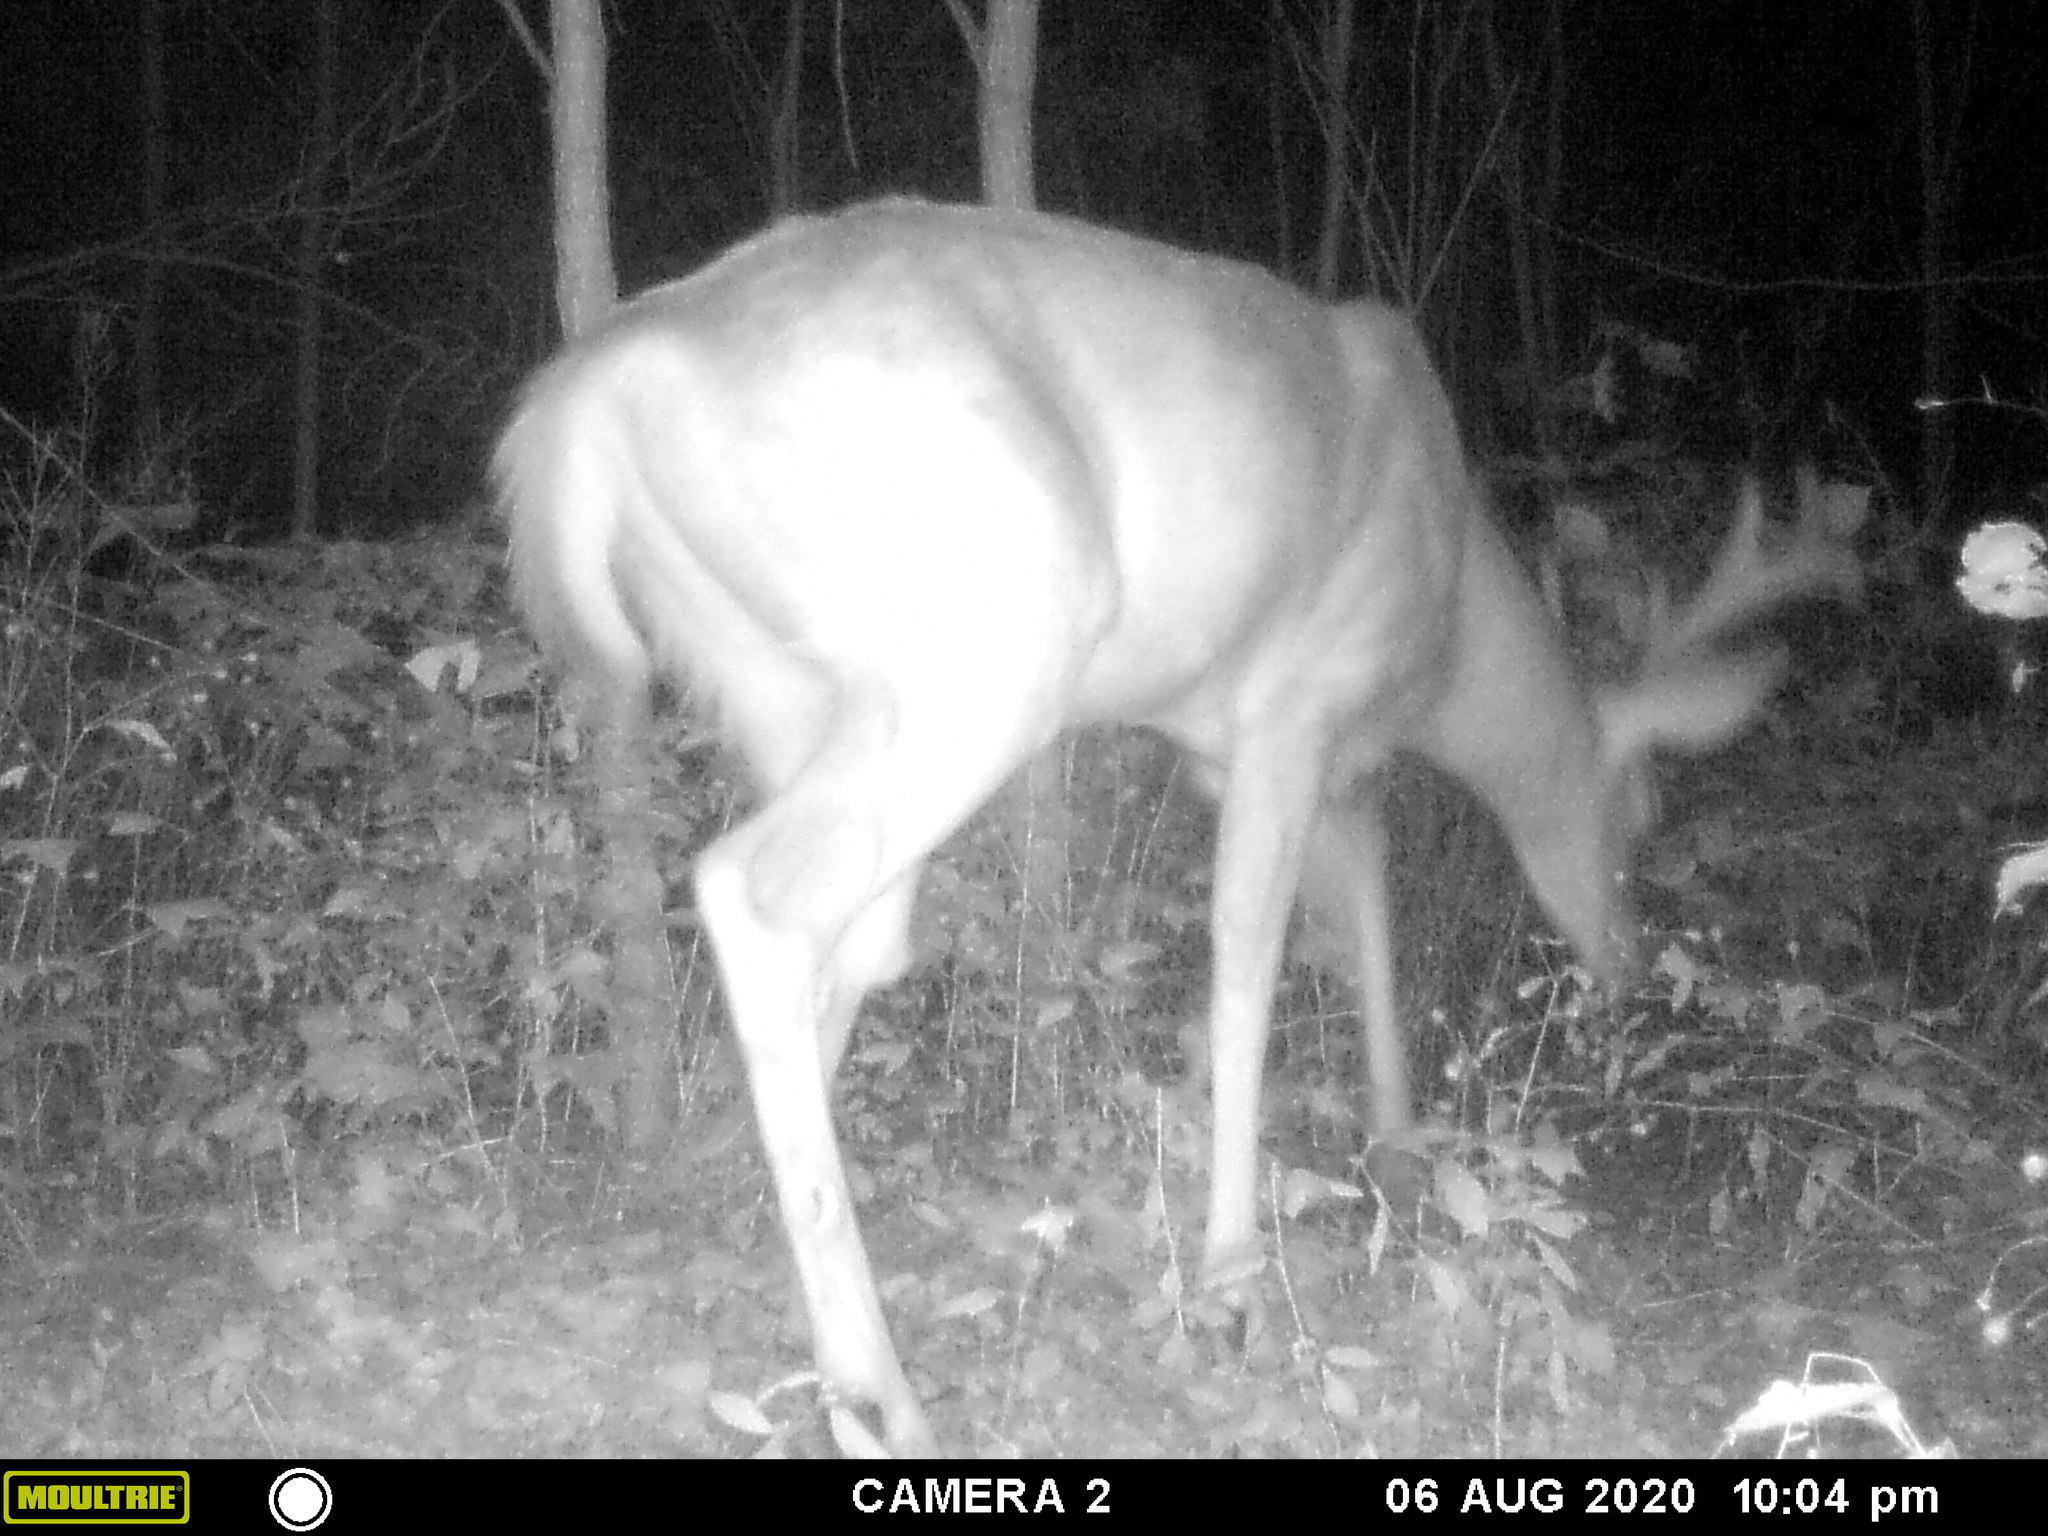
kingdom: Animalia
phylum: Chordata
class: Mammalia
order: Artiodactyla
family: Cervidae
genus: Odocoileus
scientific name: Odocoileus virginianus
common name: White-tailed deer
